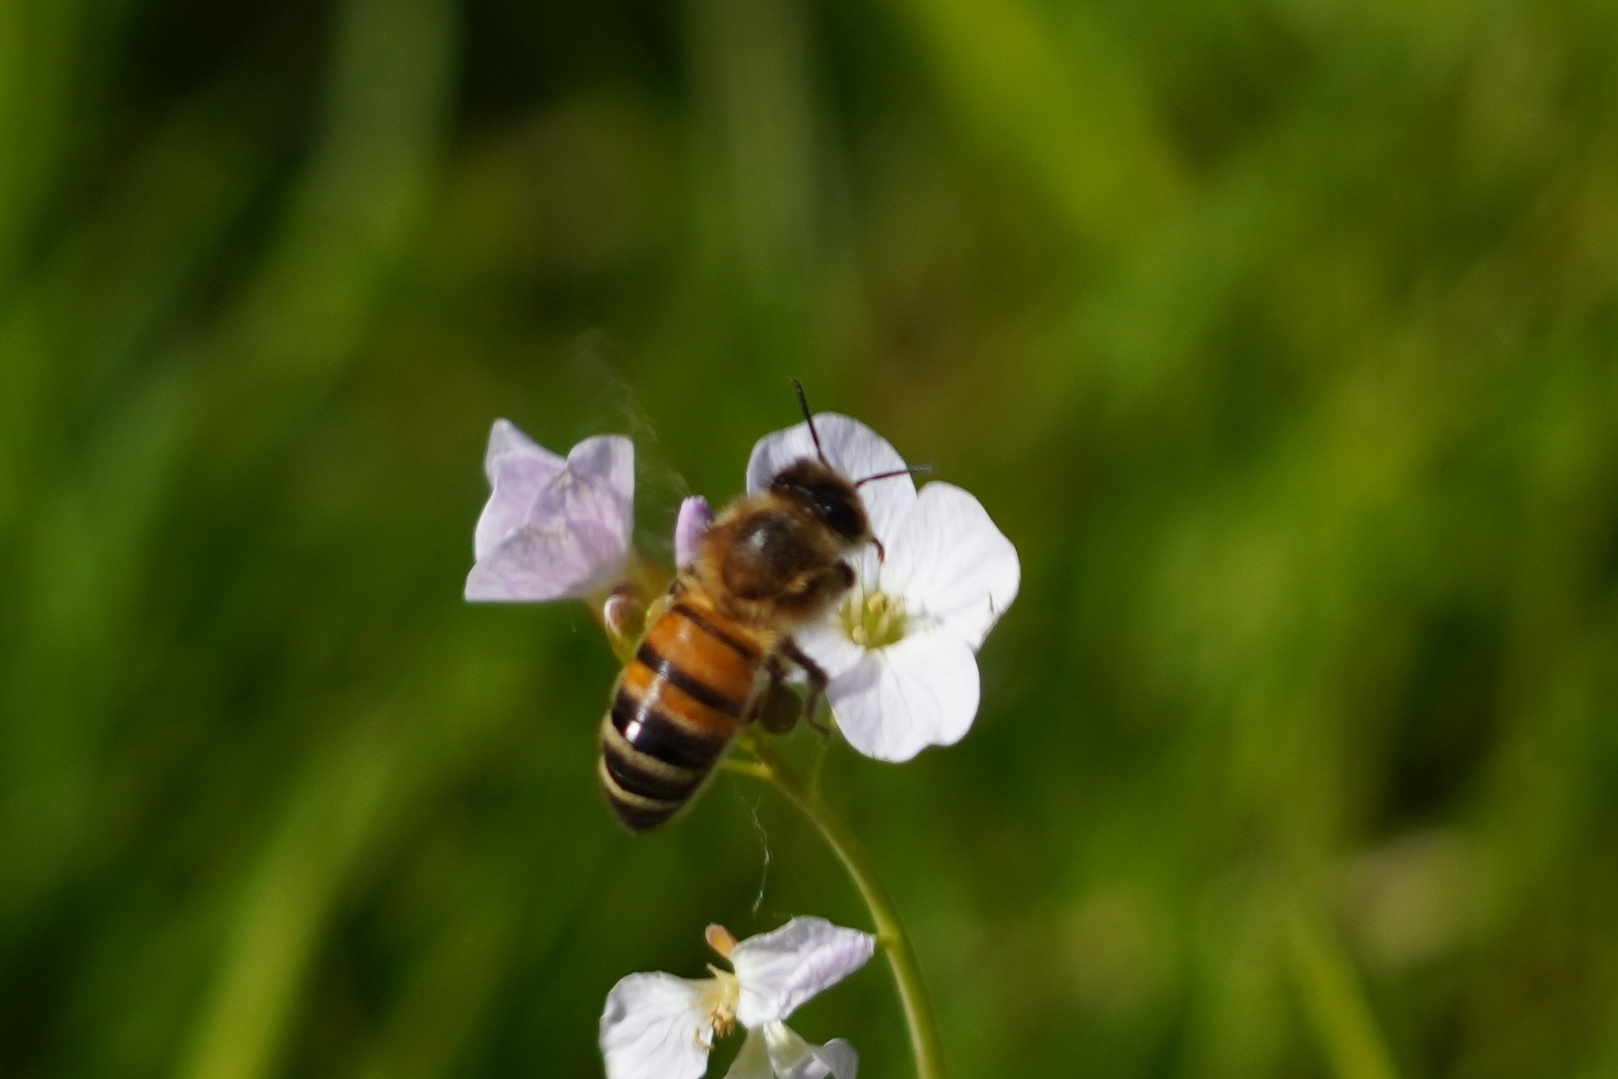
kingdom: Animalia
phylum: Arthropoda
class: Insecta
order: Hymenoptera
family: Apidae
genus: Apis
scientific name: Apis mellifera
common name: Honey bee
